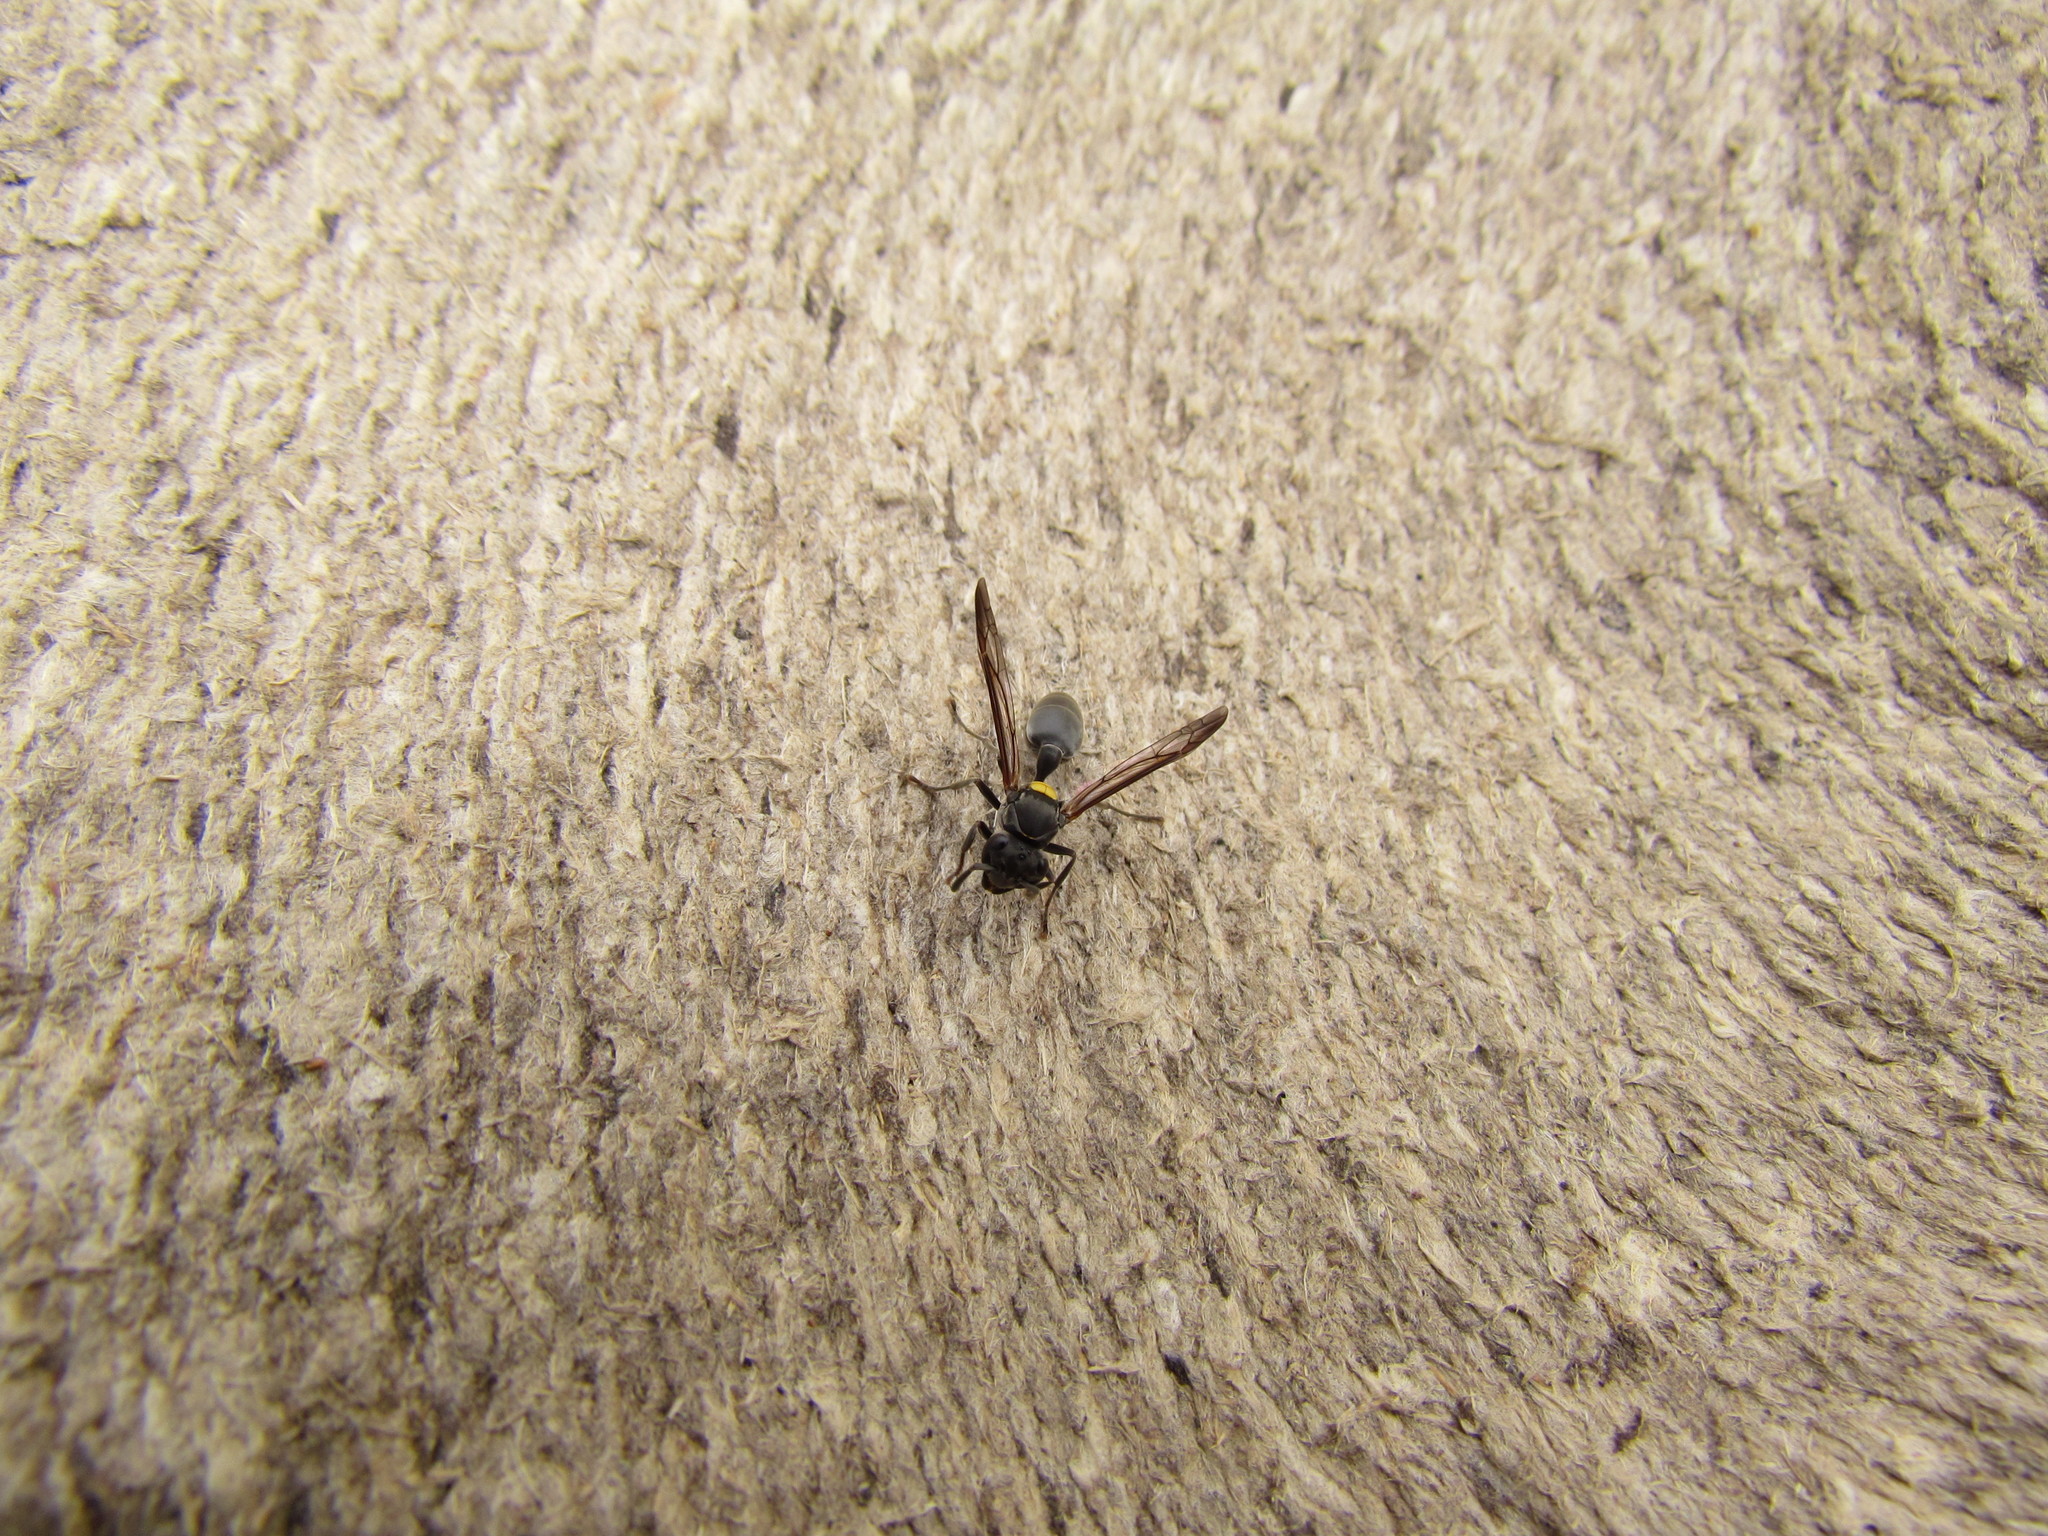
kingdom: Animalia
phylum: Arthropoda
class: Insecta
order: Hymenoptera
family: Eumenidae
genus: Polybia
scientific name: Polybia scutellaris
